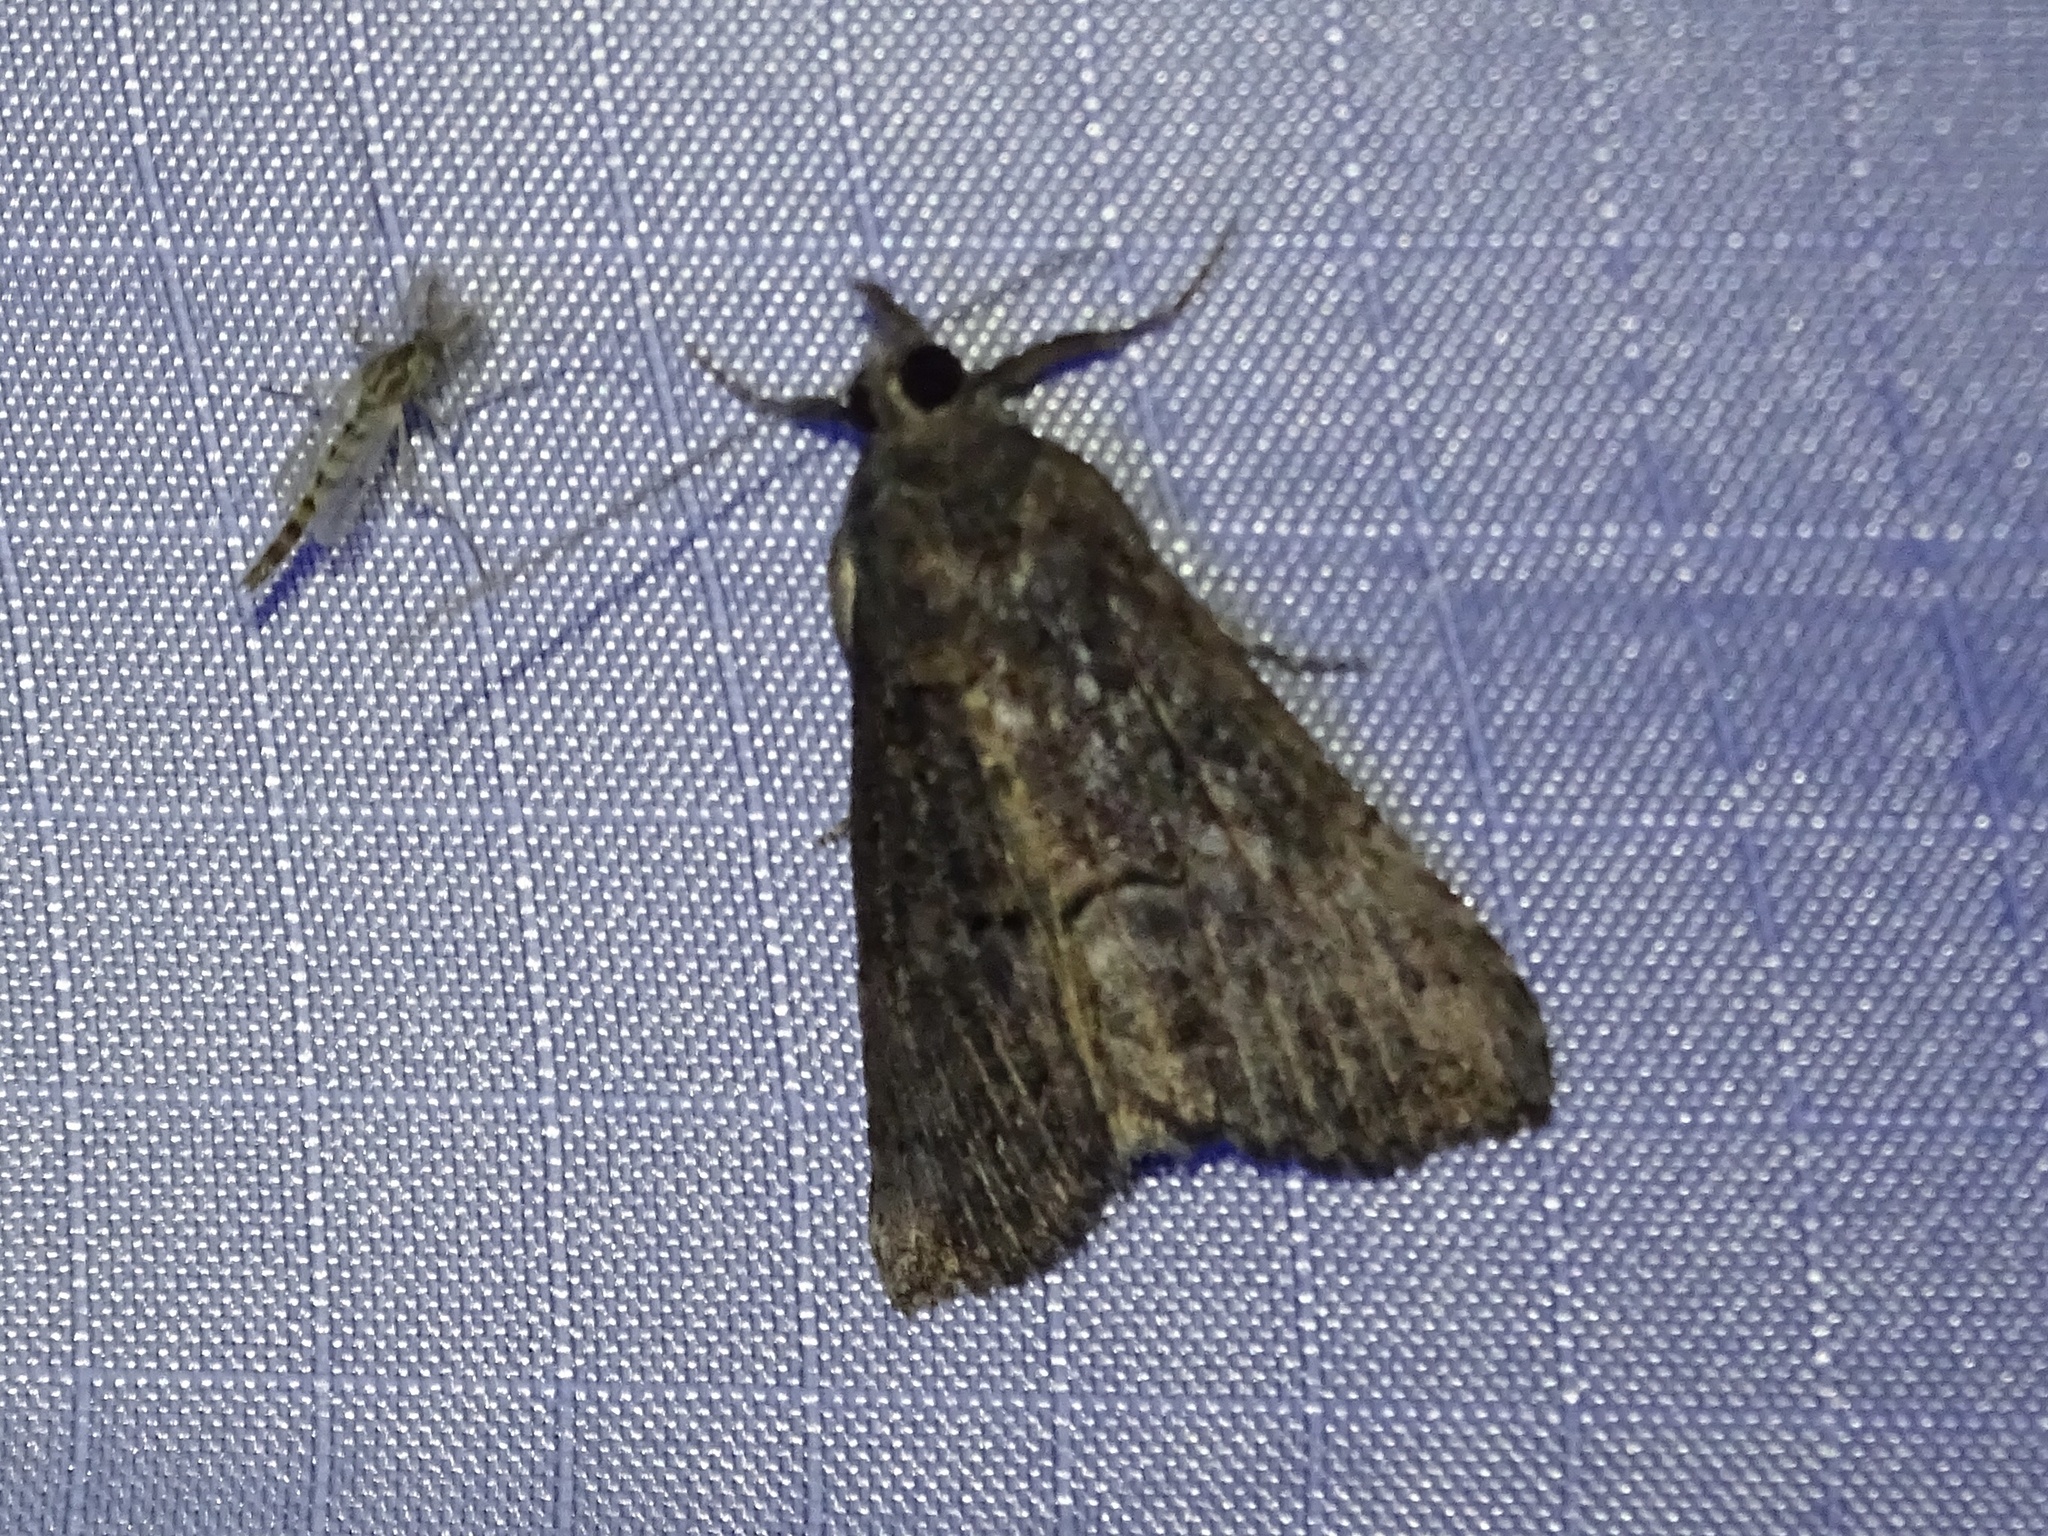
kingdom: Animalia
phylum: Arthropoda
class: Insecta
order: Lepidoptera
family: Erebidae
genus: Hypena
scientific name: Hypena scabra
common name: Green cloverworm
